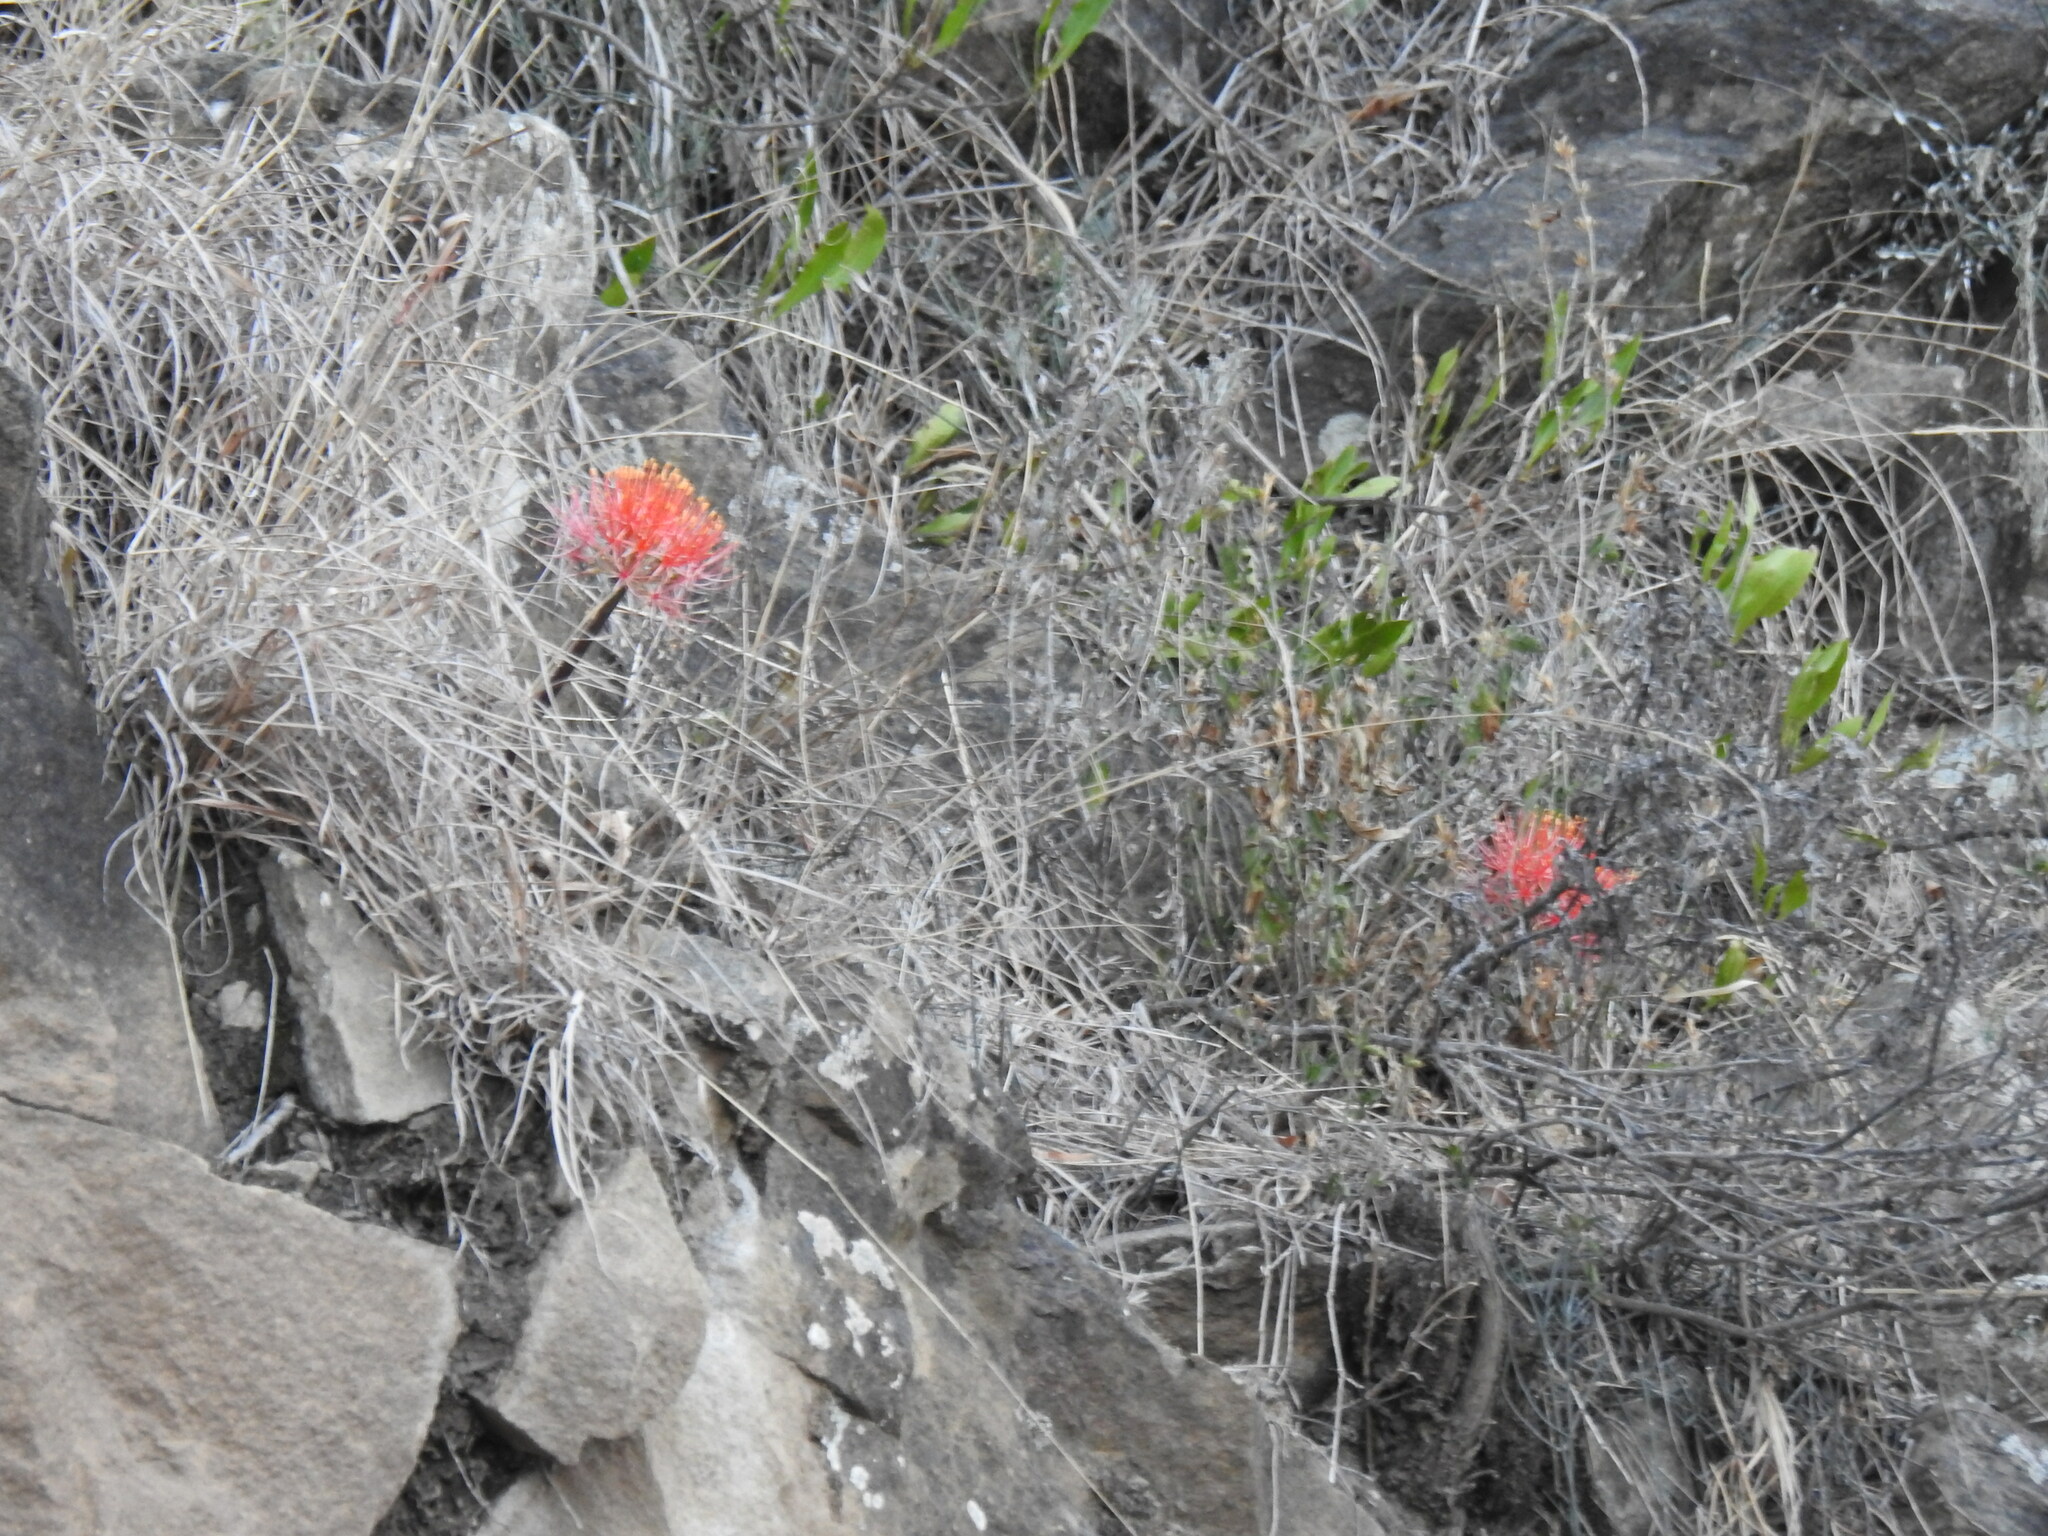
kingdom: Plantae
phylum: Tracheophyta
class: Liliopsida
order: Asparagales
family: Amaryllidaceae
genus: Scadoxus
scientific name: Scadoxus multiflorus
